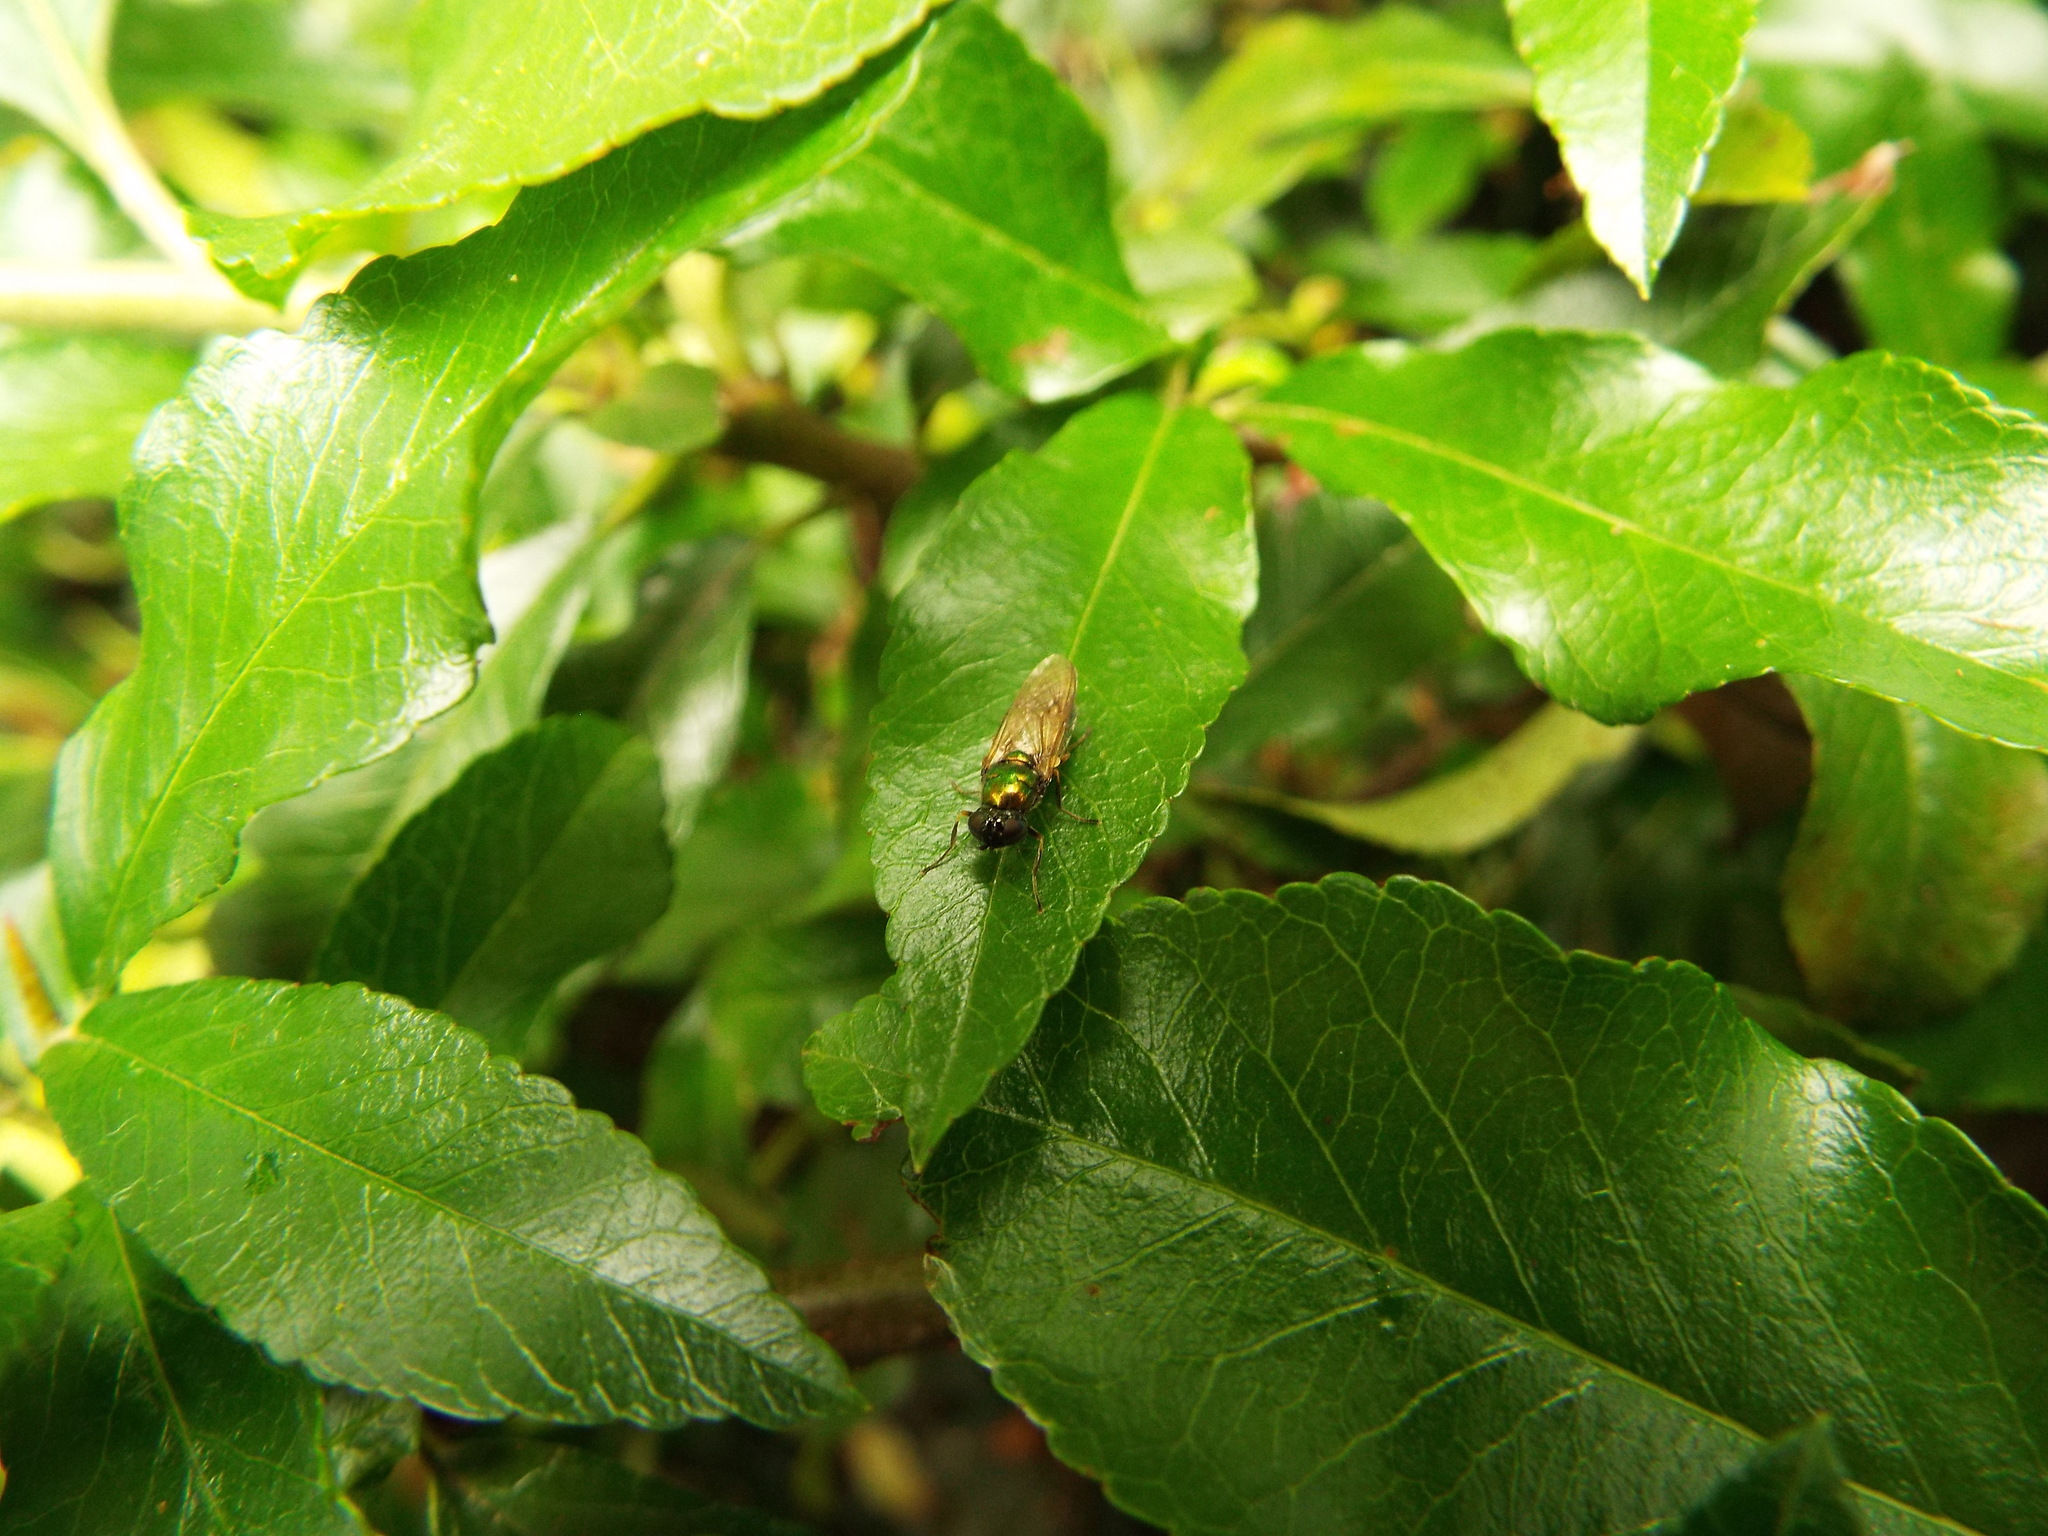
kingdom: Animalia
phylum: Arthropoda
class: Insecta
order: Diptera
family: Stratiomyidae
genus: Chloromyia
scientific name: Chloromyia formosa
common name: Soldier fly
